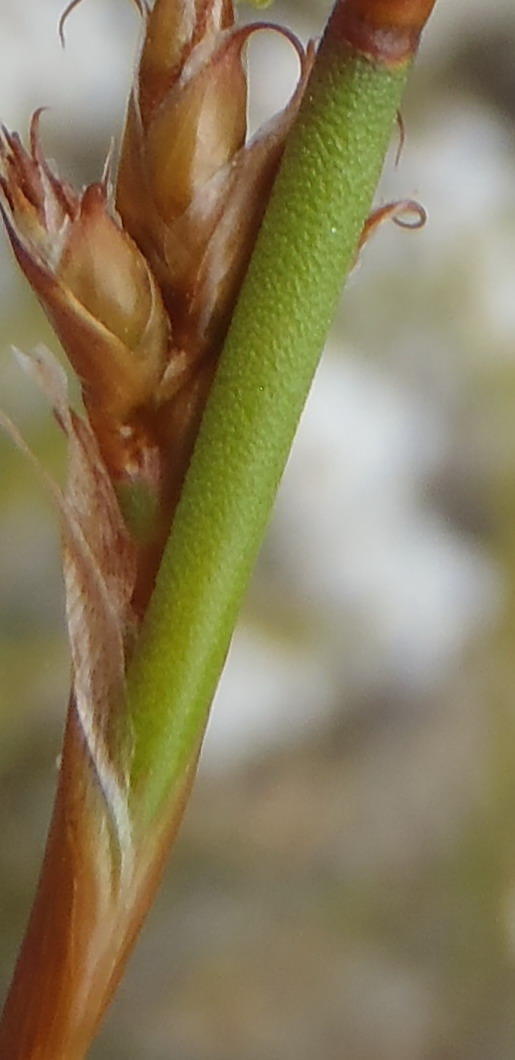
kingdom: Plantae
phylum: Tracheophyta
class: Liliopsida
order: Poales
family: Restionaceae
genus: Restio
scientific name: Restio capensis
